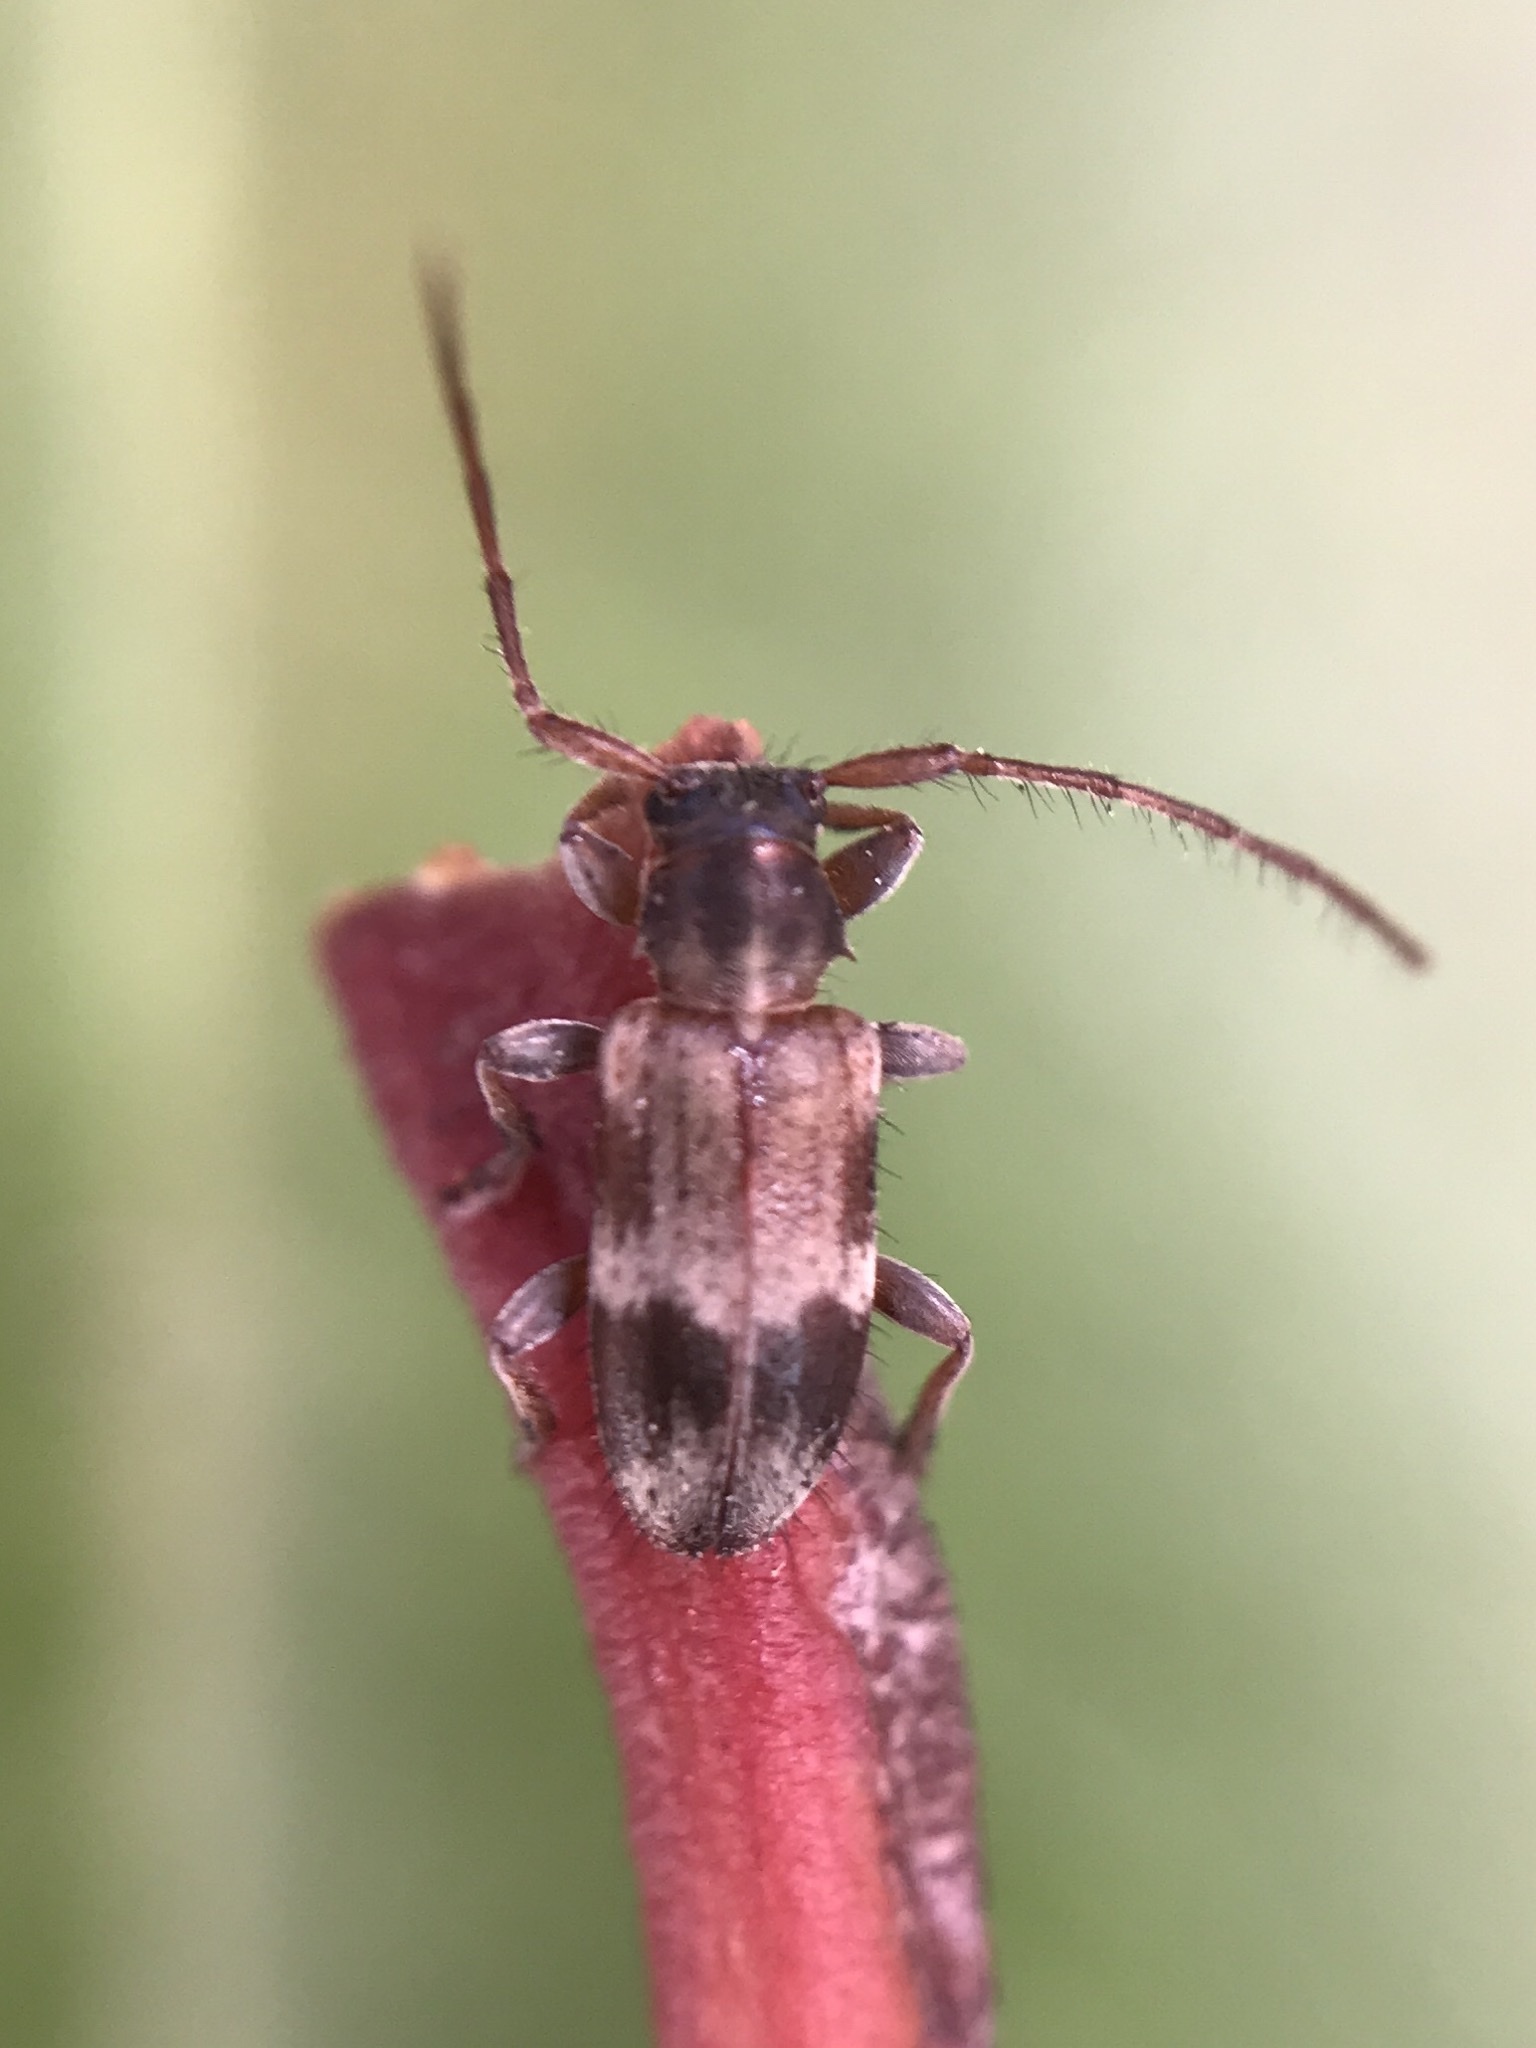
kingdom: Animalia
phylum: Arthropoda
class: Insecta
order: Coleoptera
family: Cerambycidae
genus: Exocentrus
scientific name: Exocentrus lusitanus
